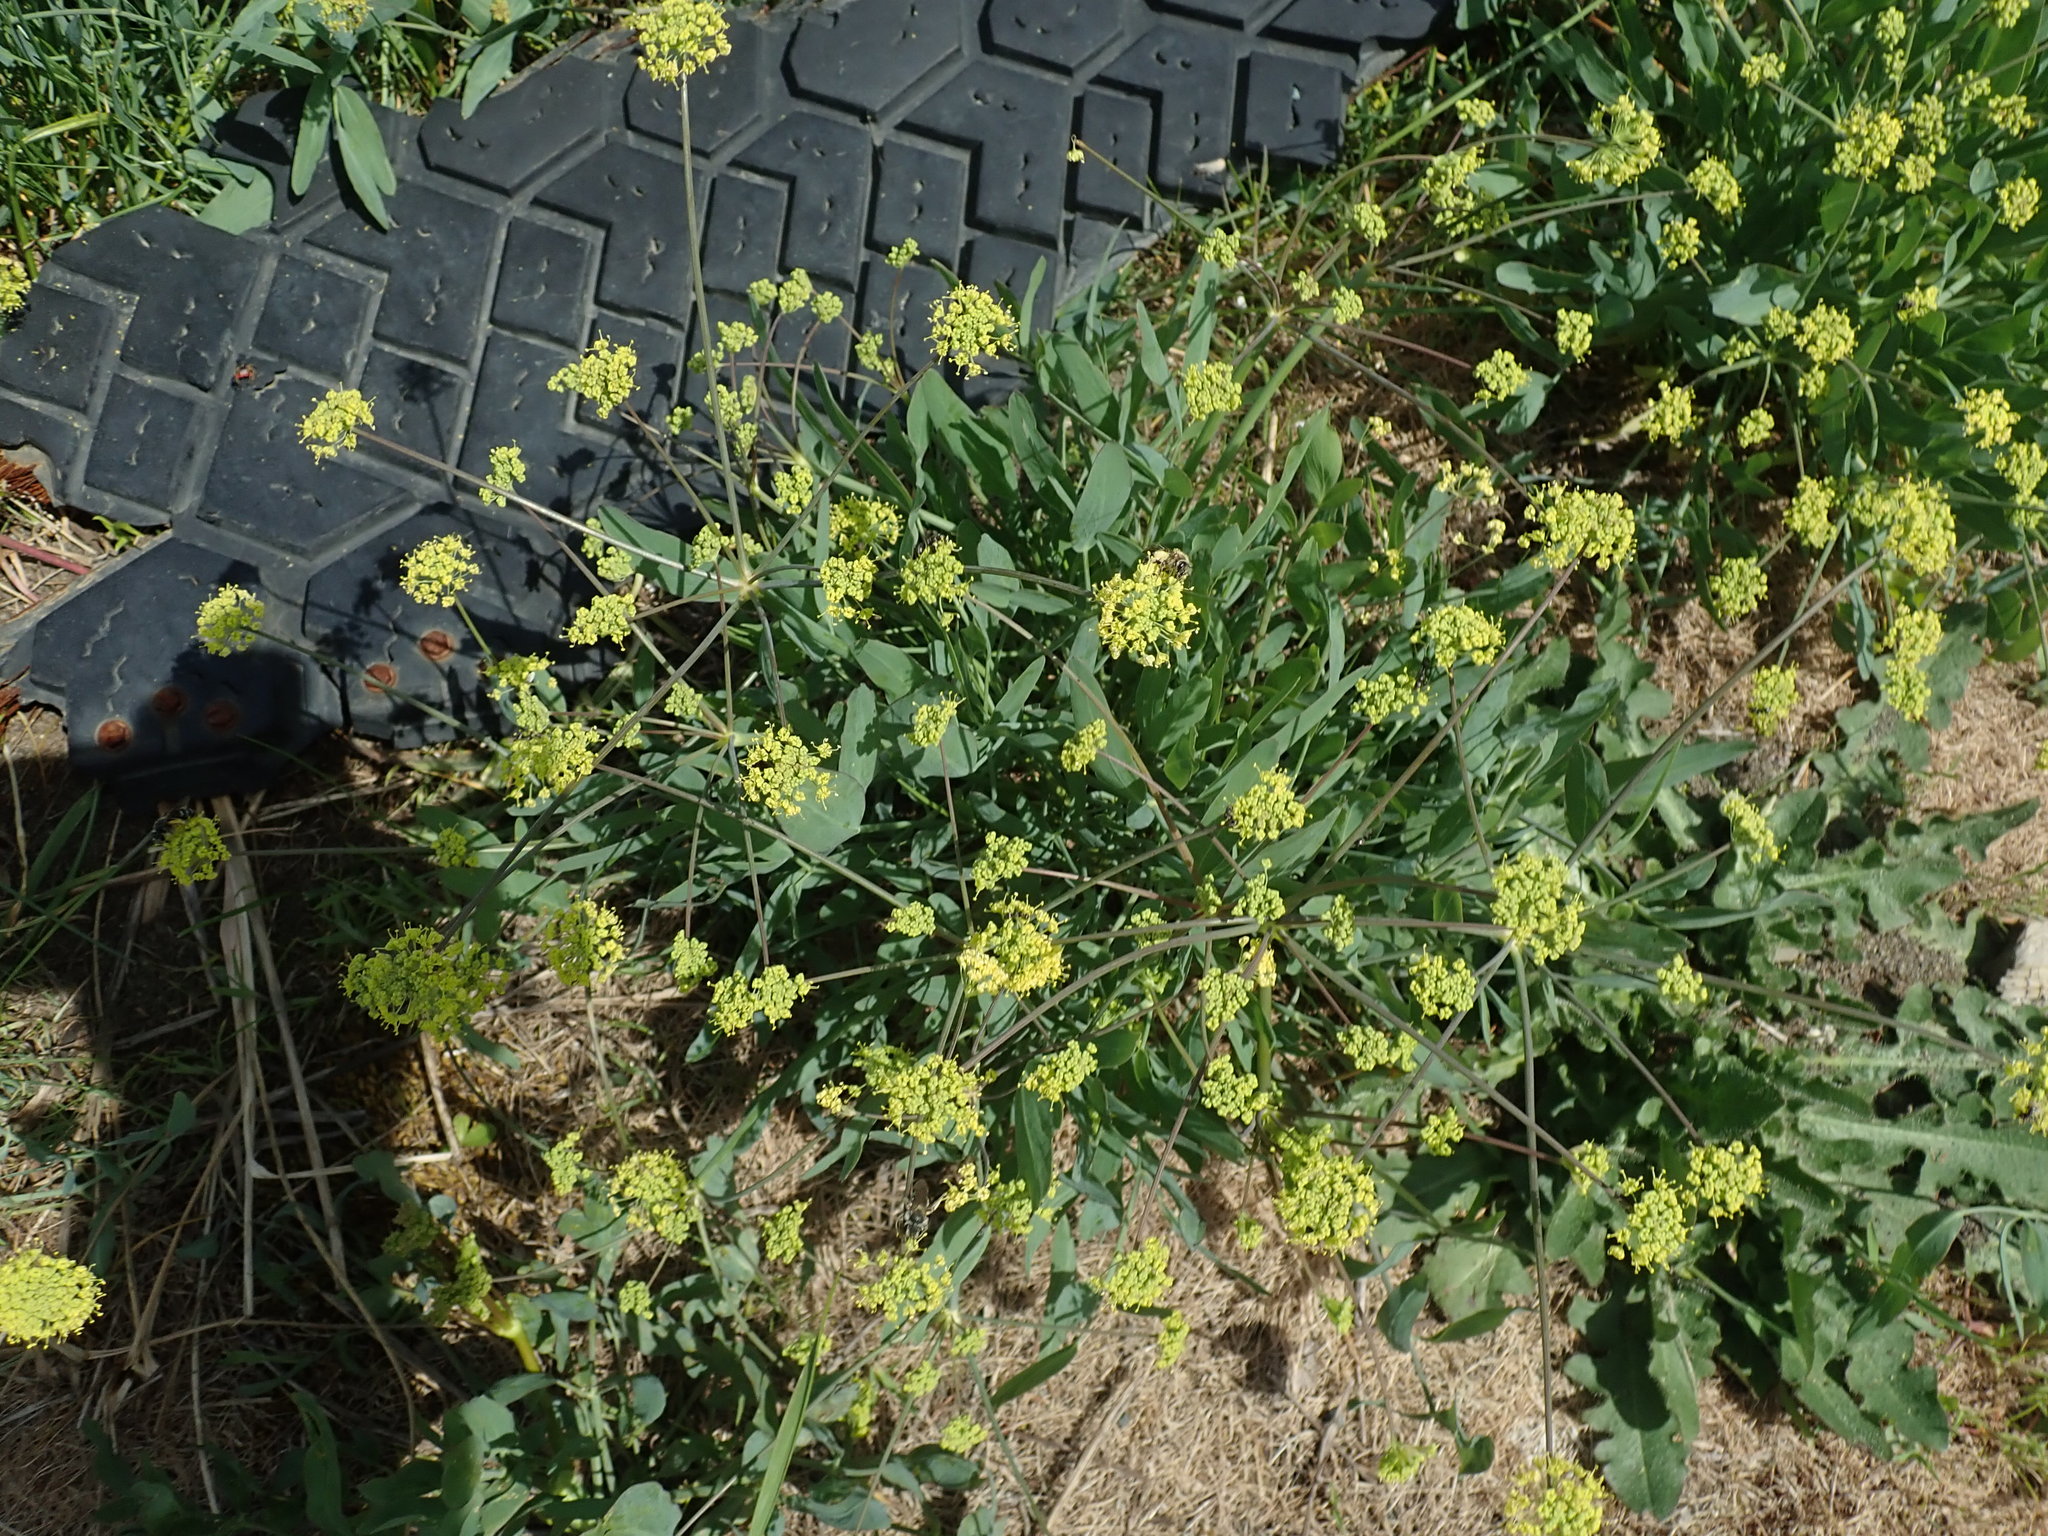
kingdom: Plantae
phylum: Tracheophyta
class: Magnoliopsida
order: Apiales
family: Apiaceae
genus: Lomatium
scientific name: Lomatium nudicaule
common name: Pestle lomatium
